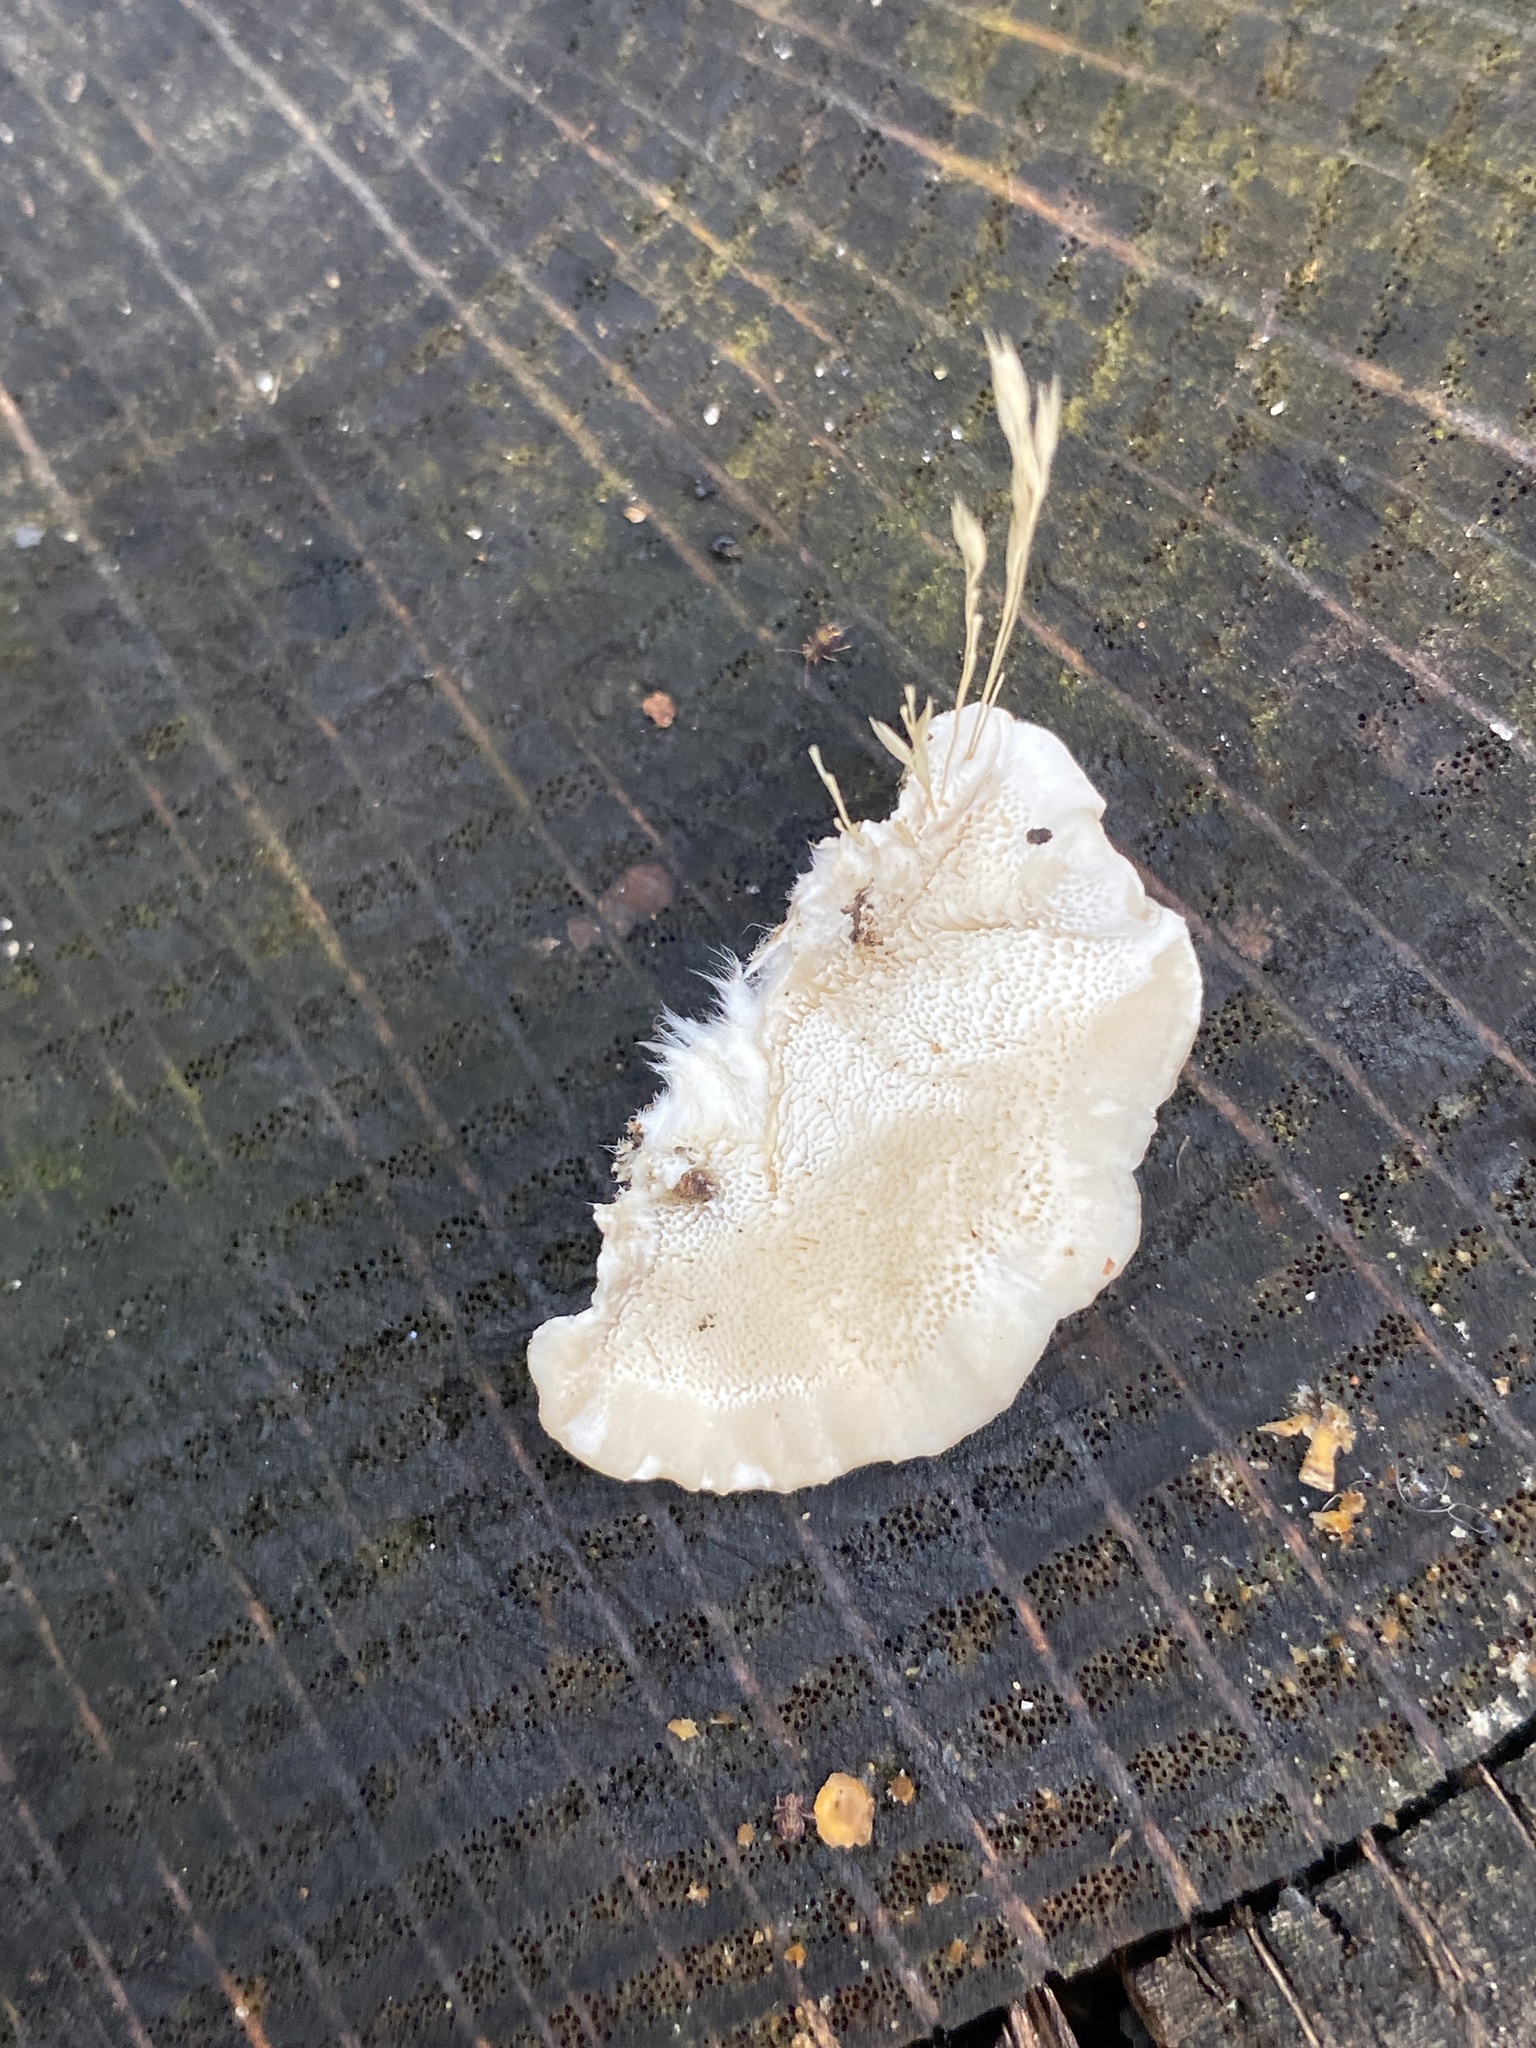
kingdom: Fungi
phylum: Basidiomycota
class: Agaricomycetes
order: Polyporales
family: Polyporaceae
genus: Trametes
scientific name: Trametes versicolor
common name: Turkeytail
